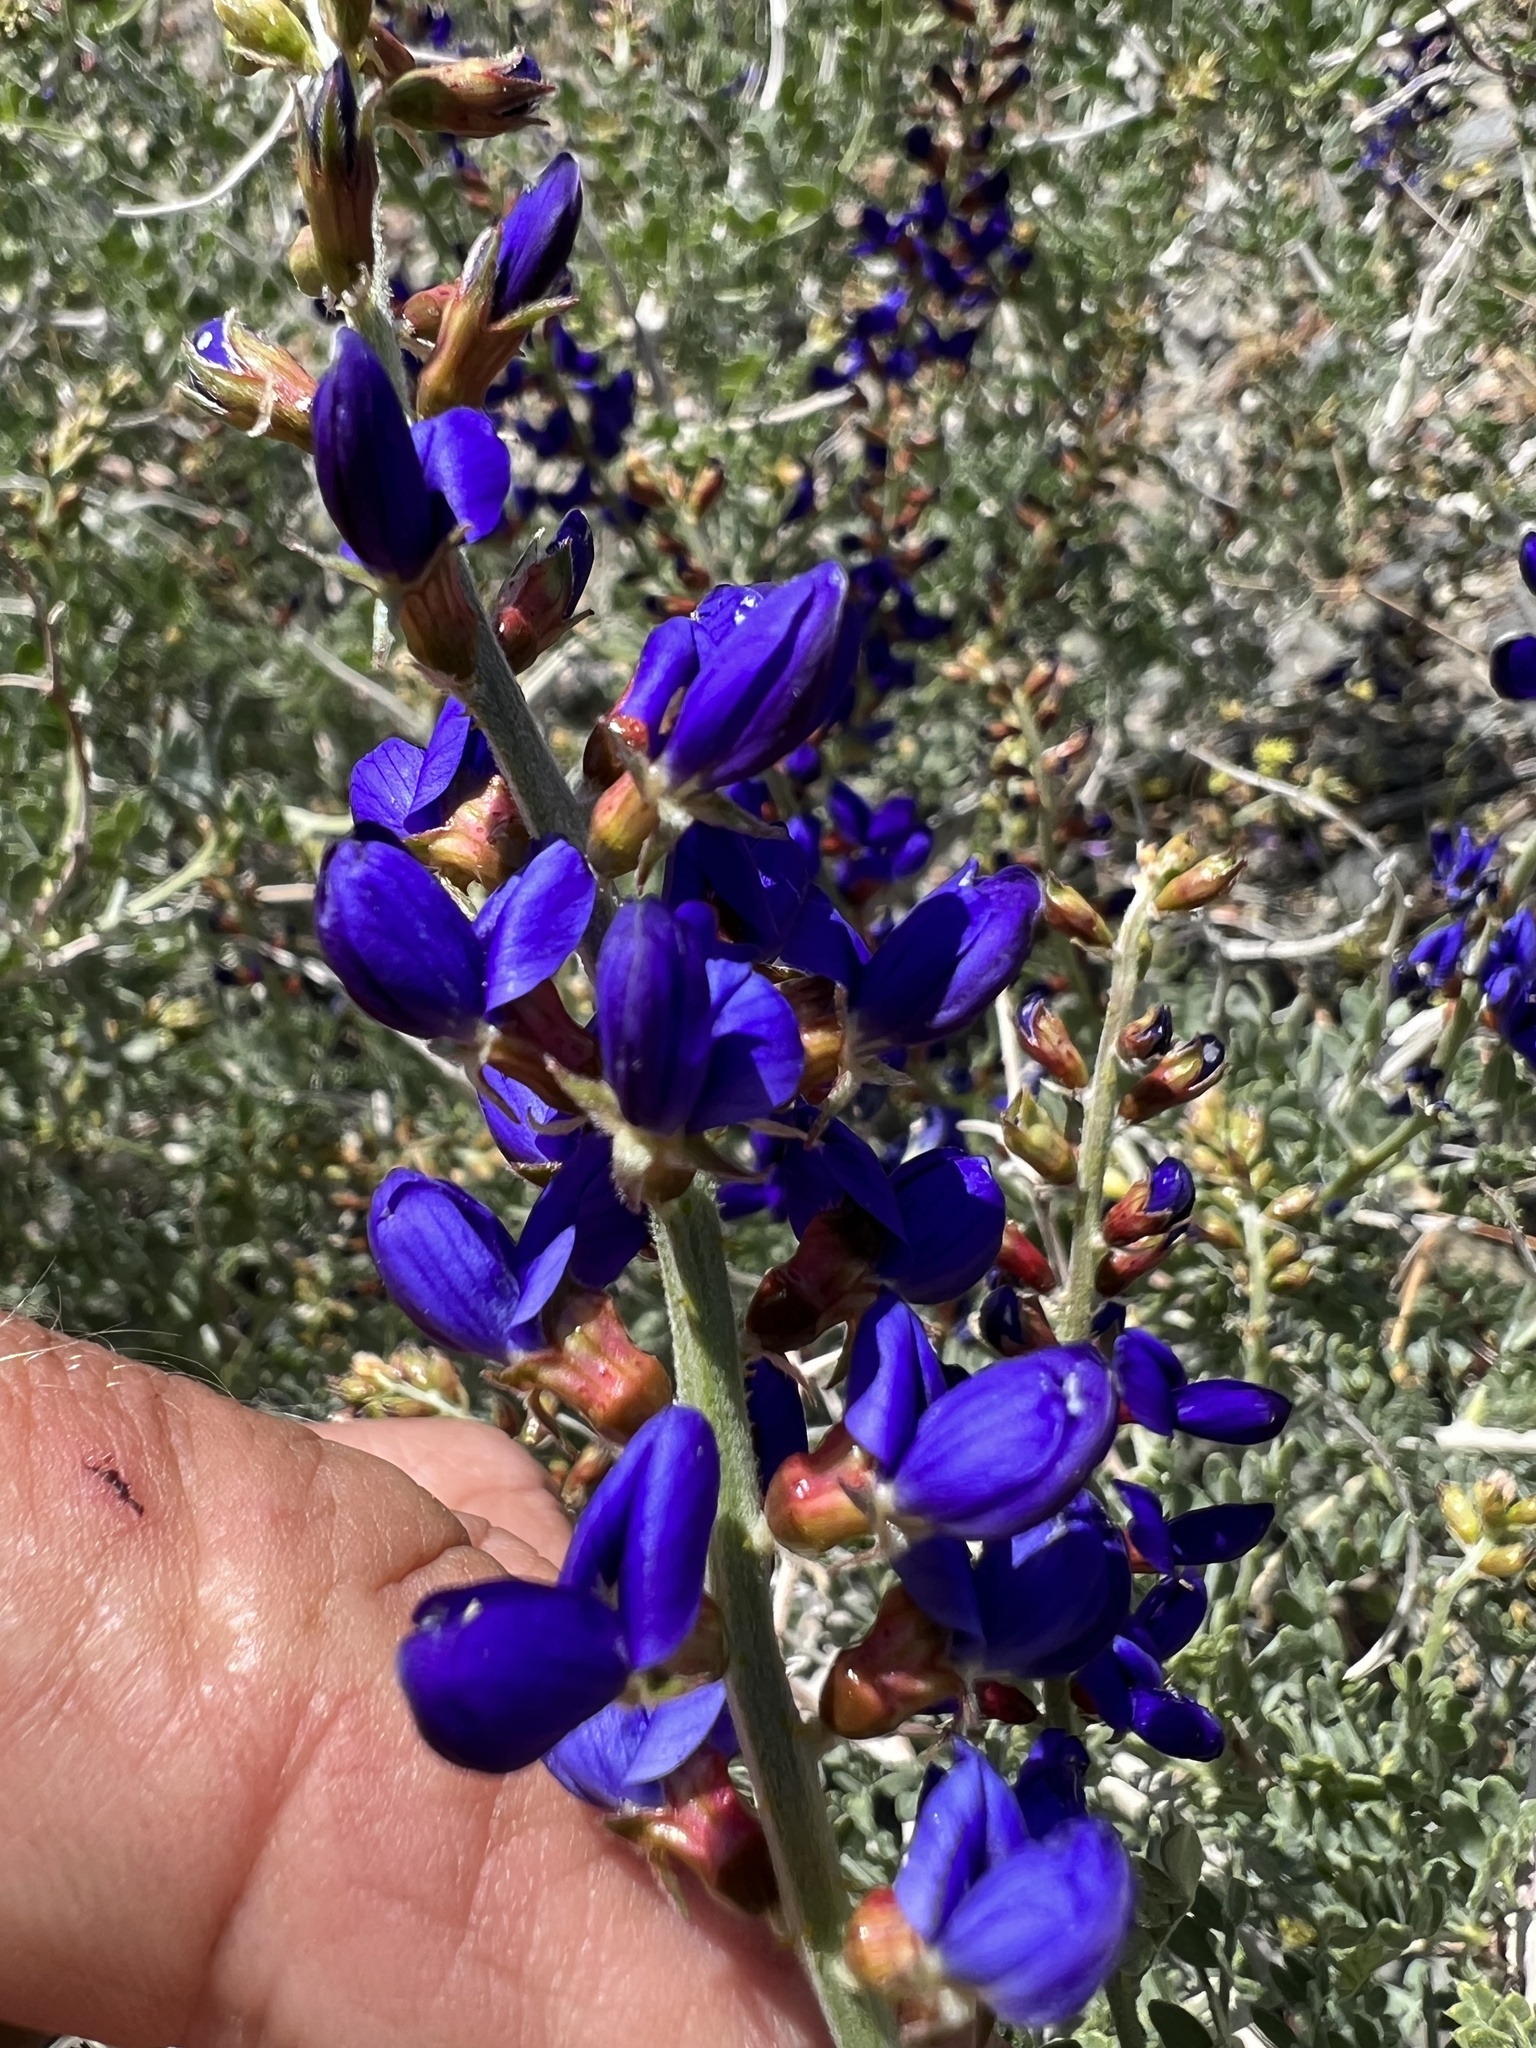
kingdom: Plantae
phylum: Tracheophyta
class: Magnoliopsida
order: Fabales
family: Fabaceae
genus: Psorothamnus
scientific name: Psorothamnus arborescens
